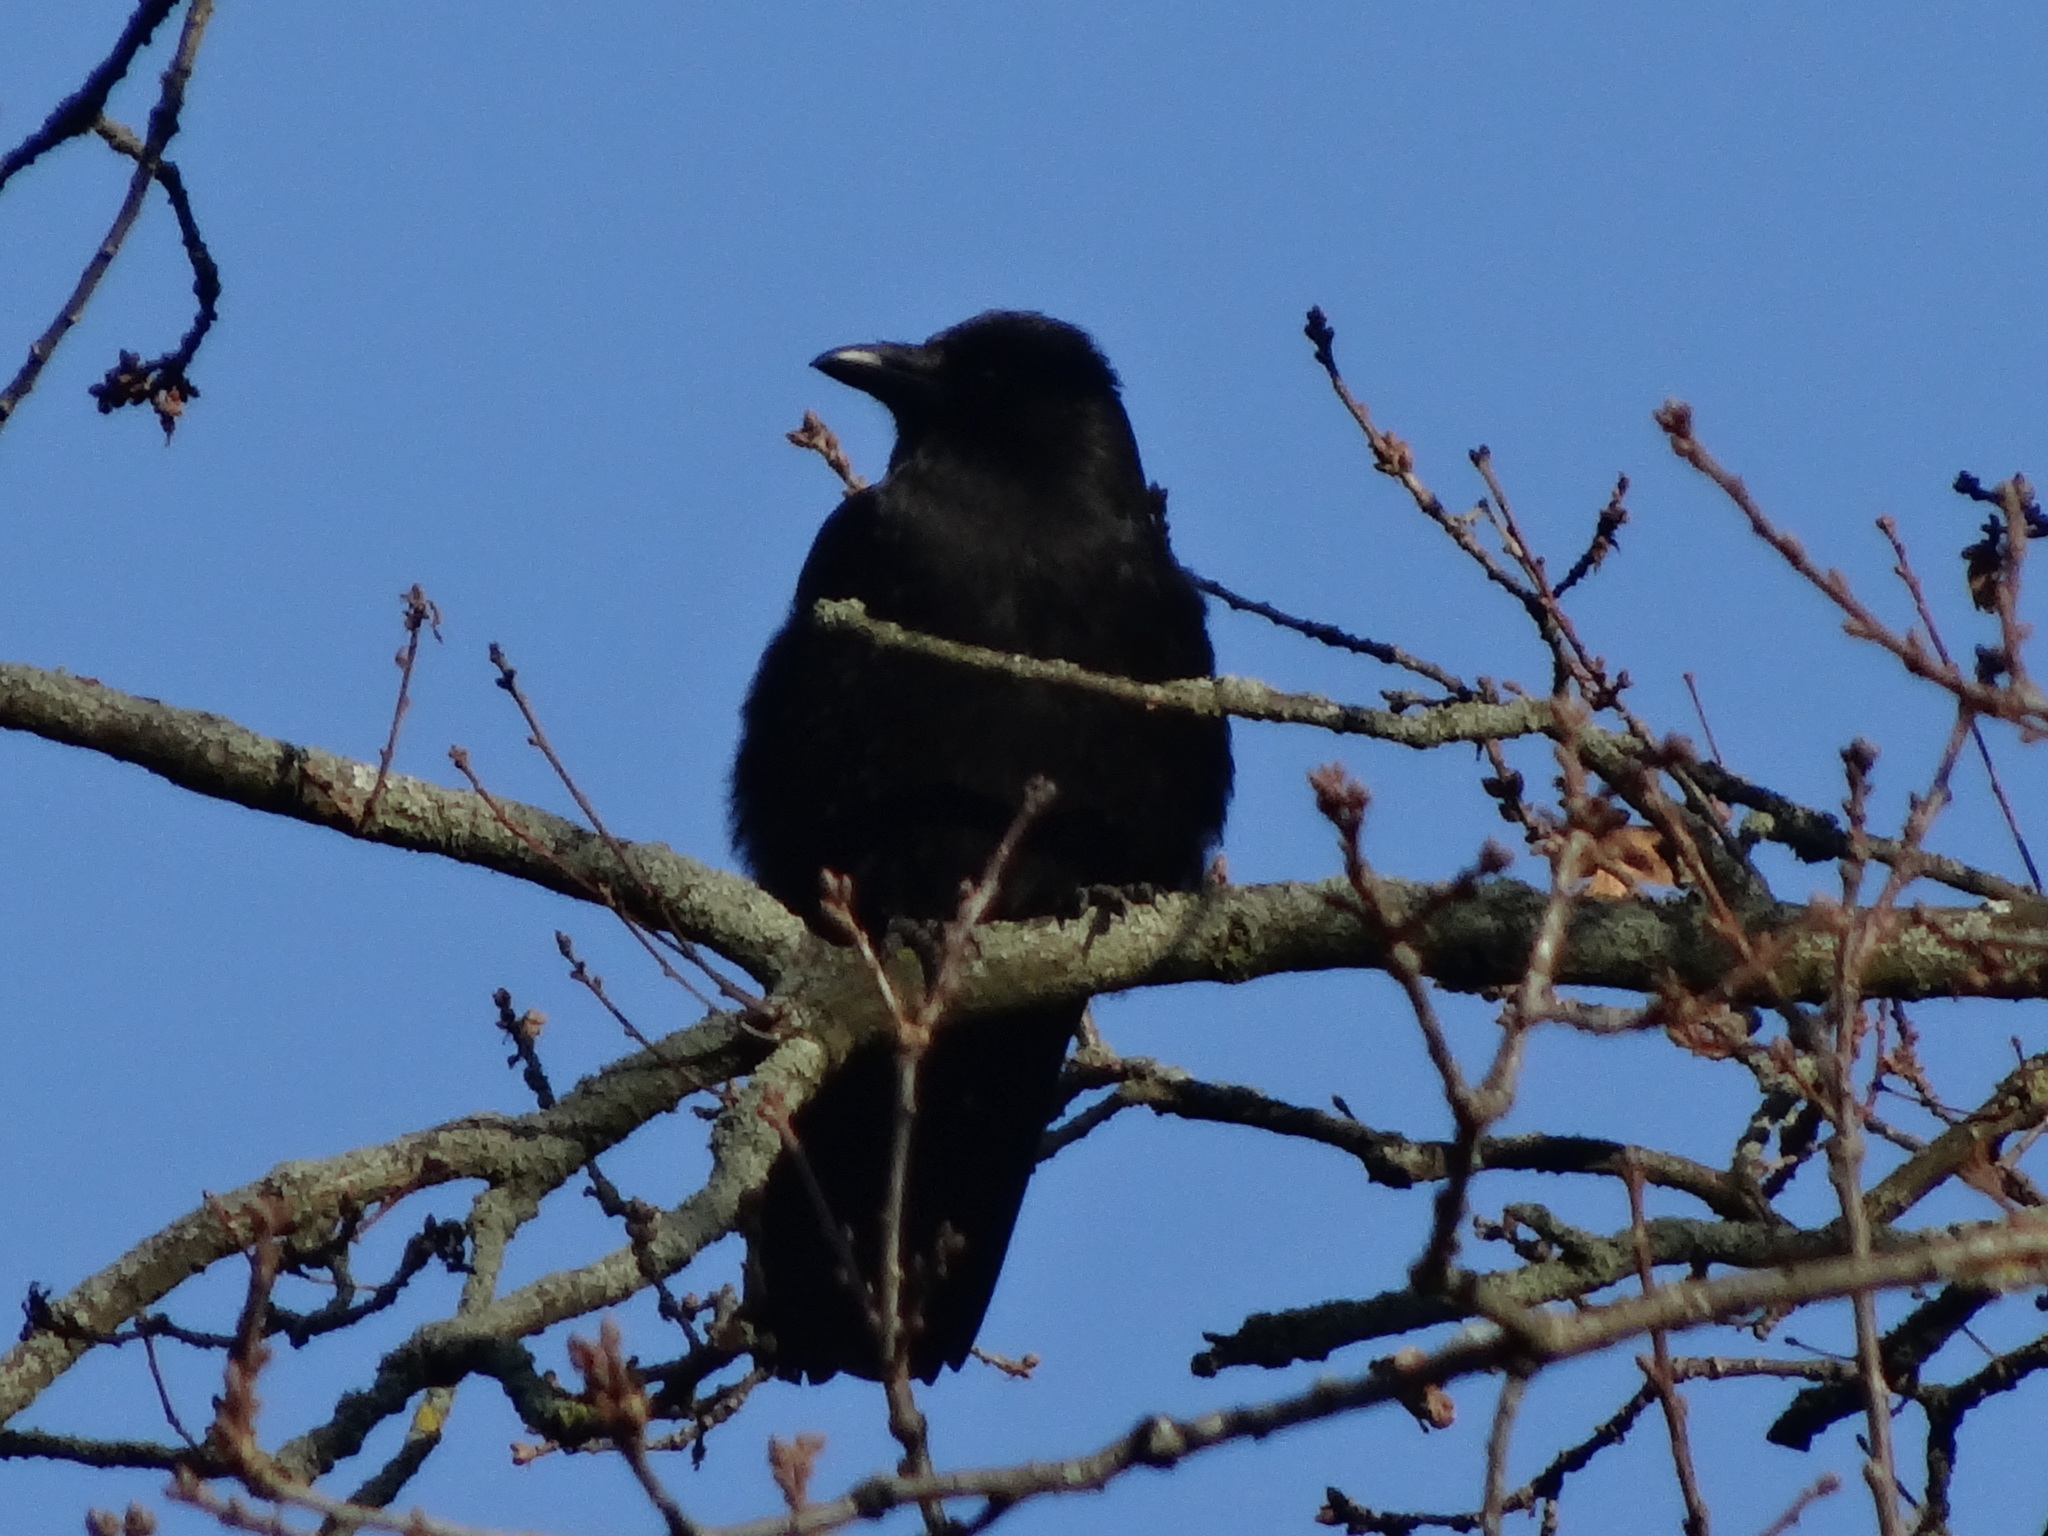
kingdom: Animalia
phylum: Chordata
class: Aves
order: Passeriformes
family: Corvidae
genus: Corvus
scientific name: Corvus corone
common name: Carrion crow
